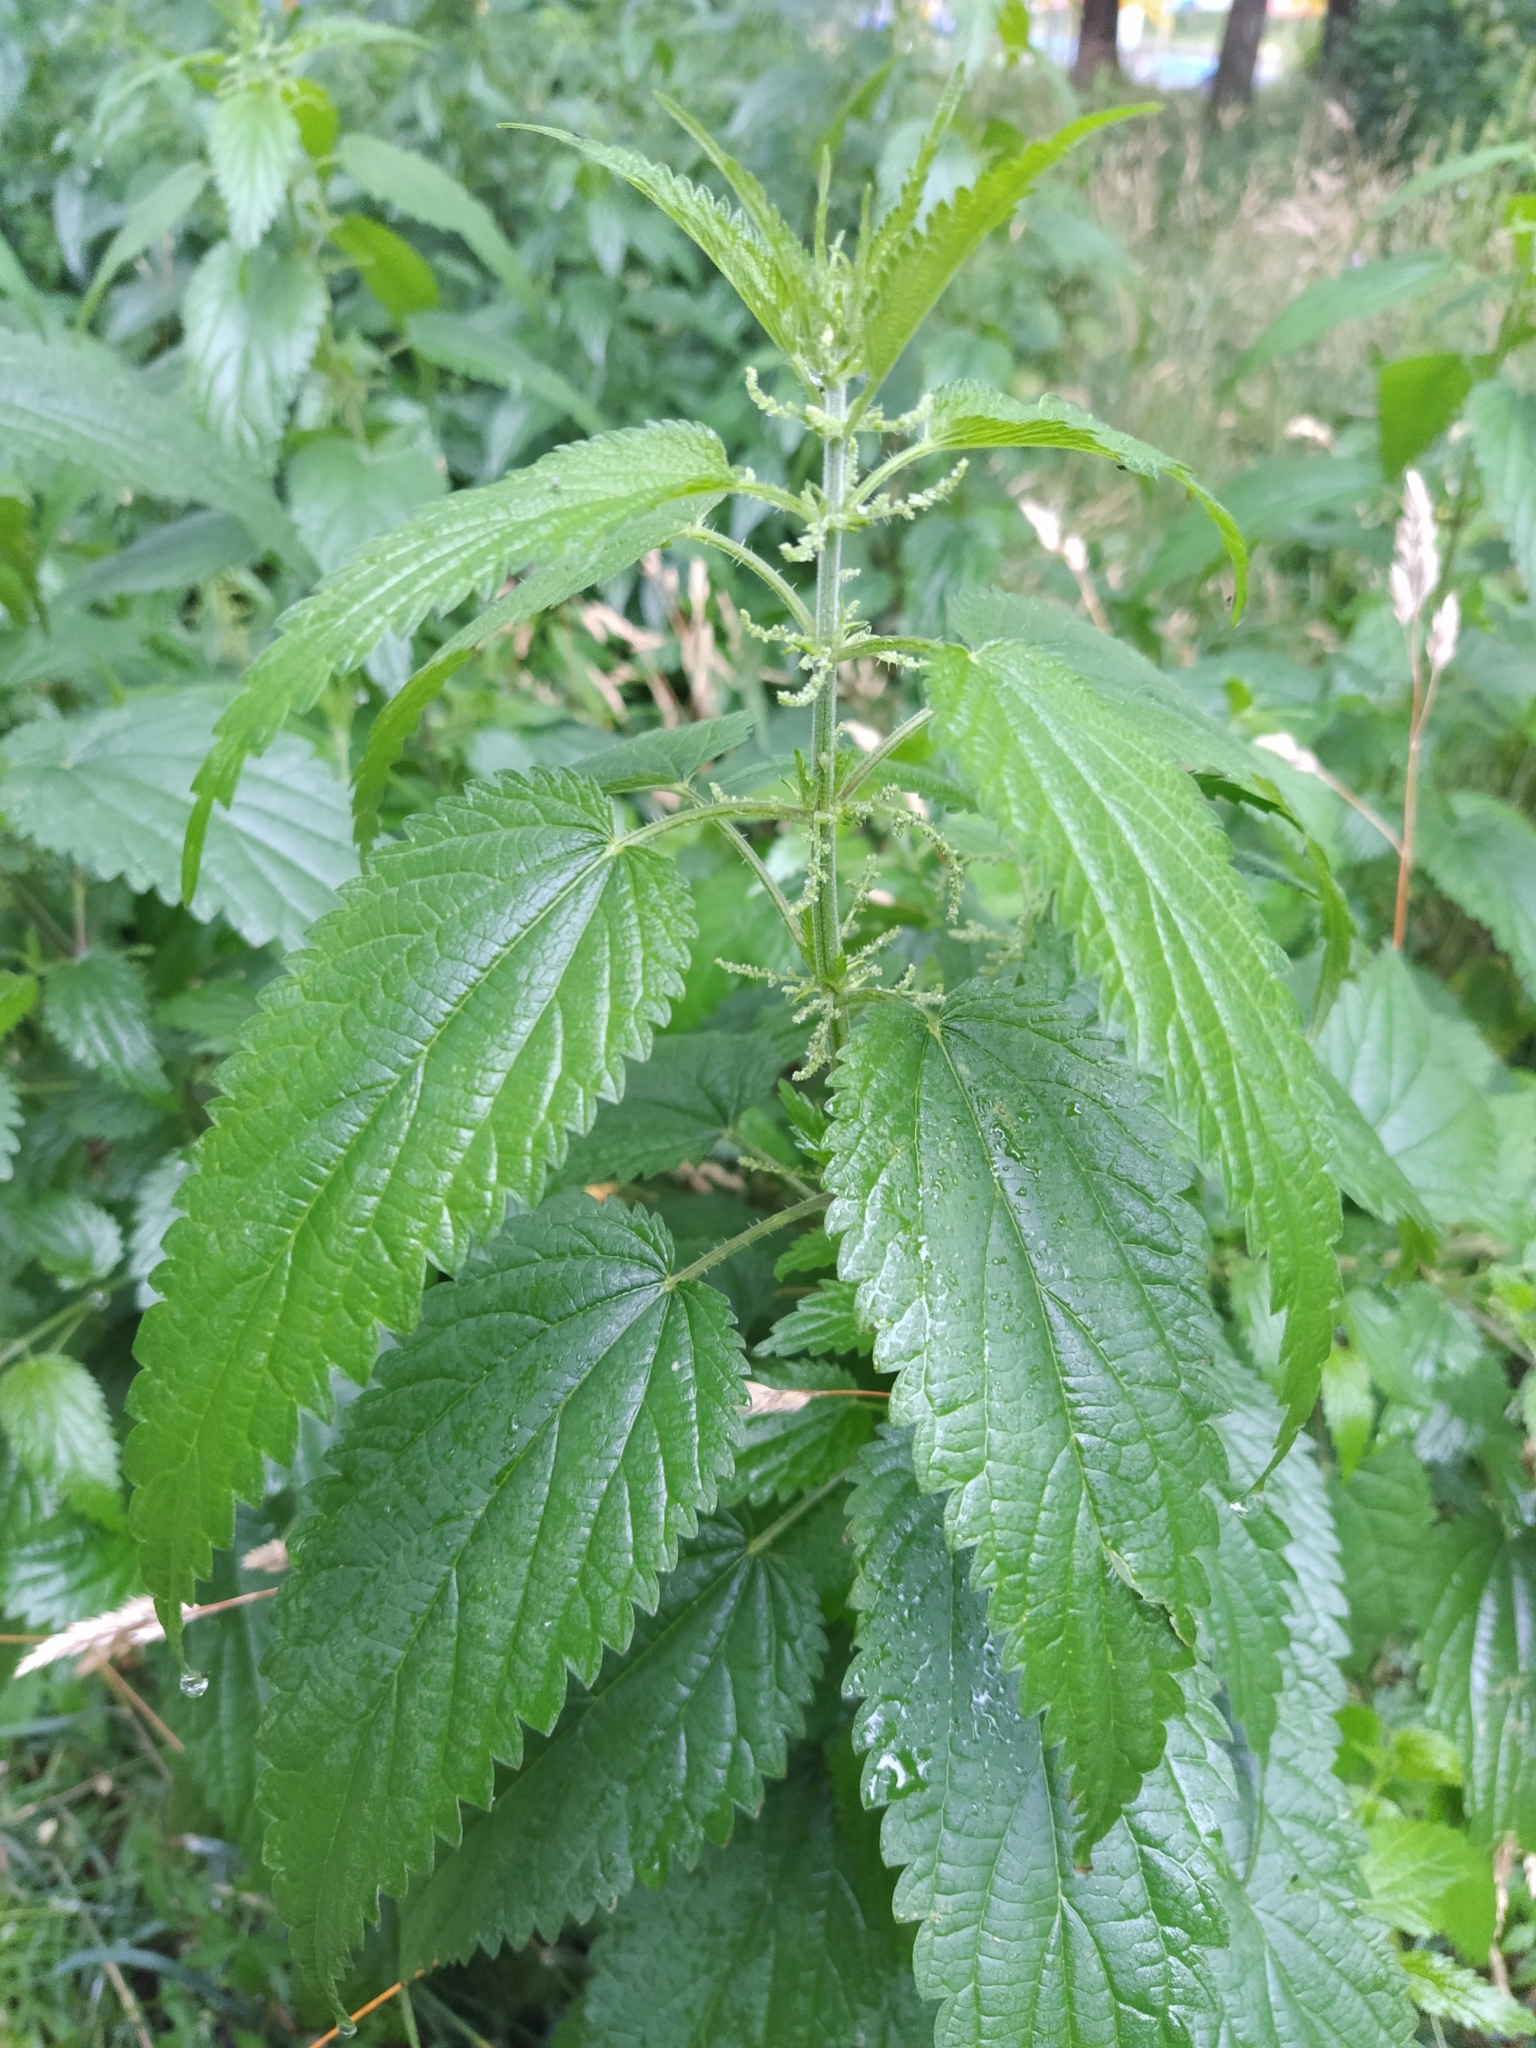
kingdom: Plantae
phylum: Tracheophyta
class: Magnoliopsida
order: Rosales
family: Urticaceae
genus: Urtica
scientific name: Urtica dioica
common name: Common nettle
